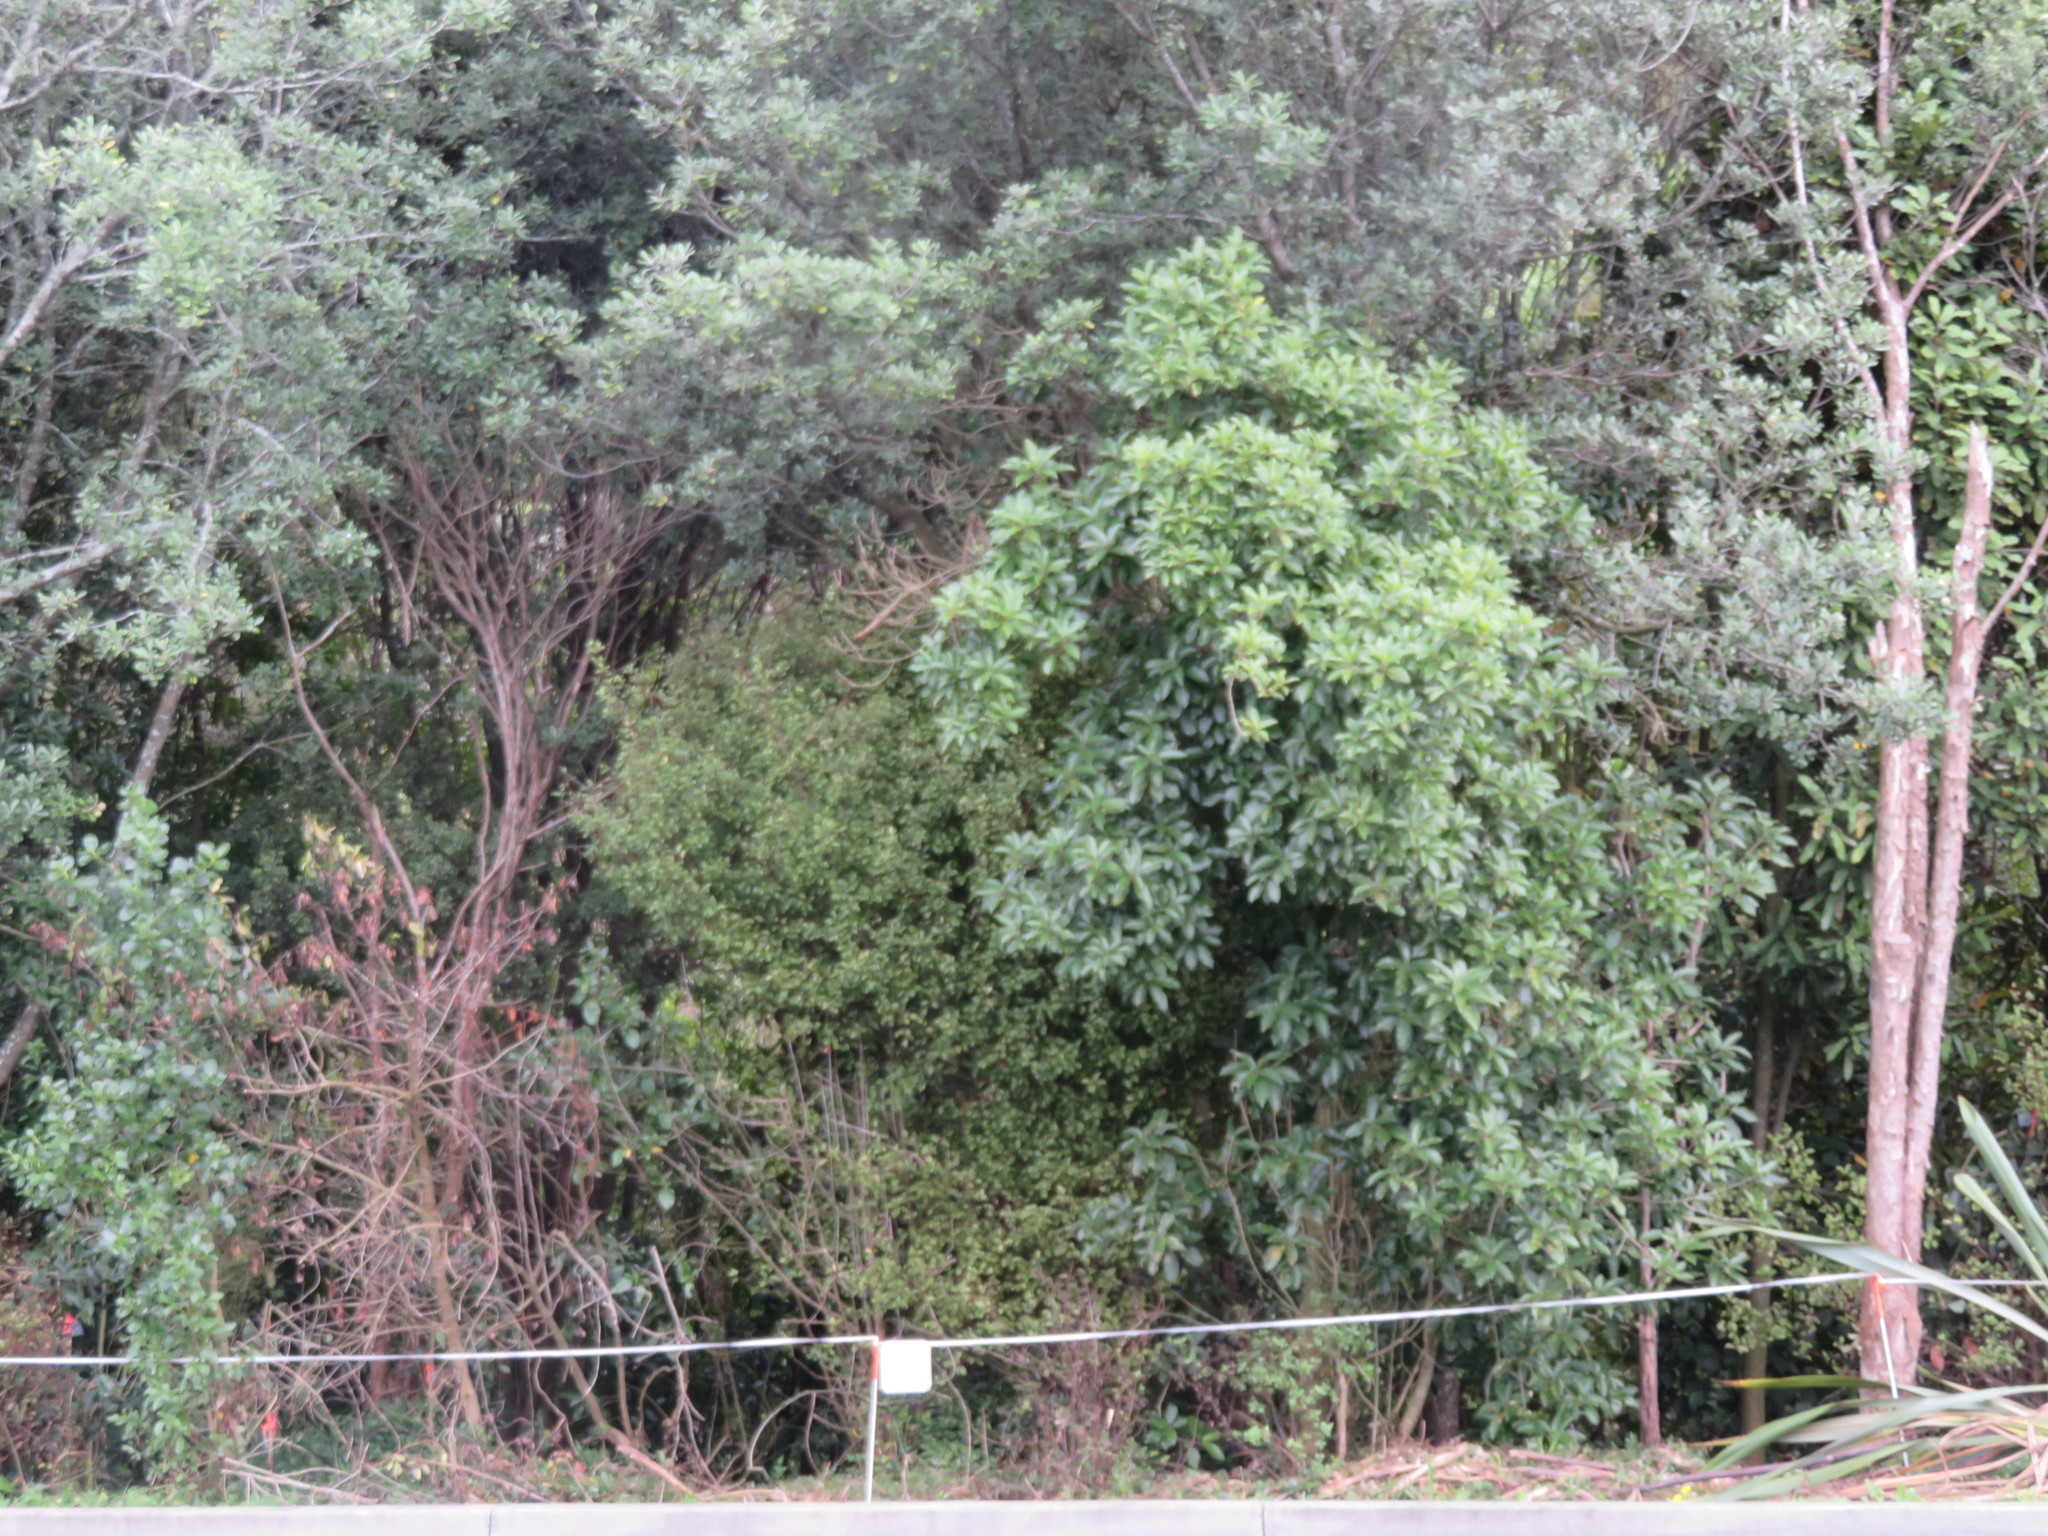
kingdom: Plantae
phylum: Tracheophyta
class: Magnoliopsida
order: Apiales
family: Pittosporaceae
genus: Pittosporum
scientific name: Pittosporum crassifolium
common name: Karo
